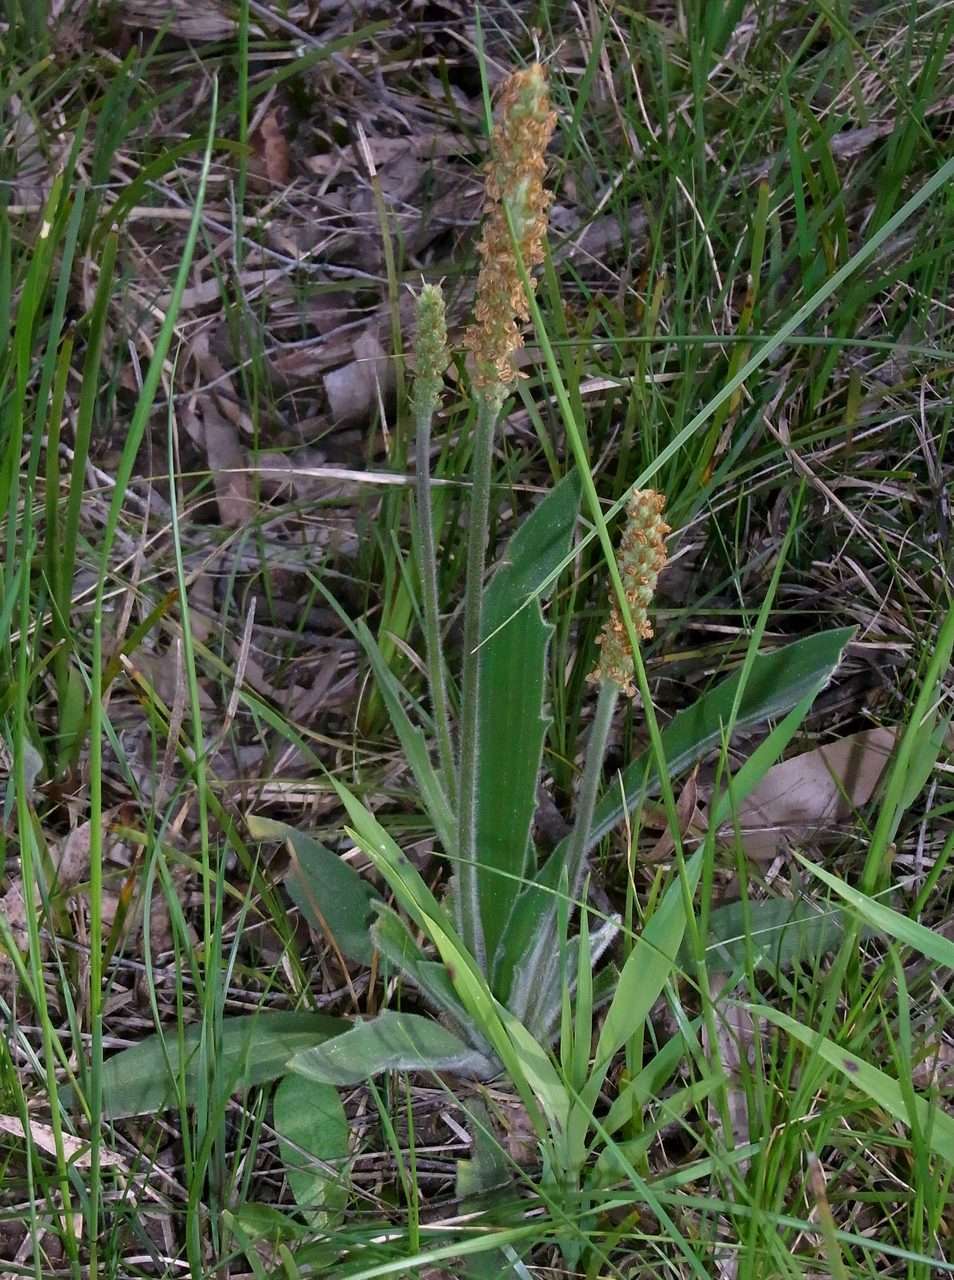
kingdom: Plantae
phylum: Tracheophyta
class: Magnoliopsida
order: Lamiales
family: Plantaginaceae
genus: Plantago
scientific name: Plantago varia
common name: Variable plantain
